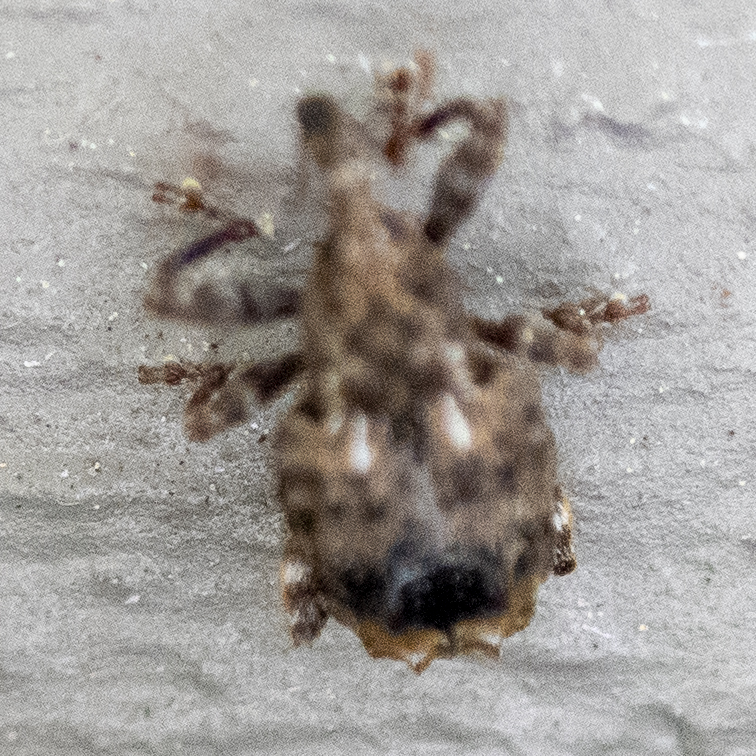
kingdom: Animalia
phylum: Arthropoda
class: Insecta
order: Coleoptera
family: Curculionidae
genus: Conotrachelus
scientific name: Conotrachelus nenuphar
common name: Plum curculio
